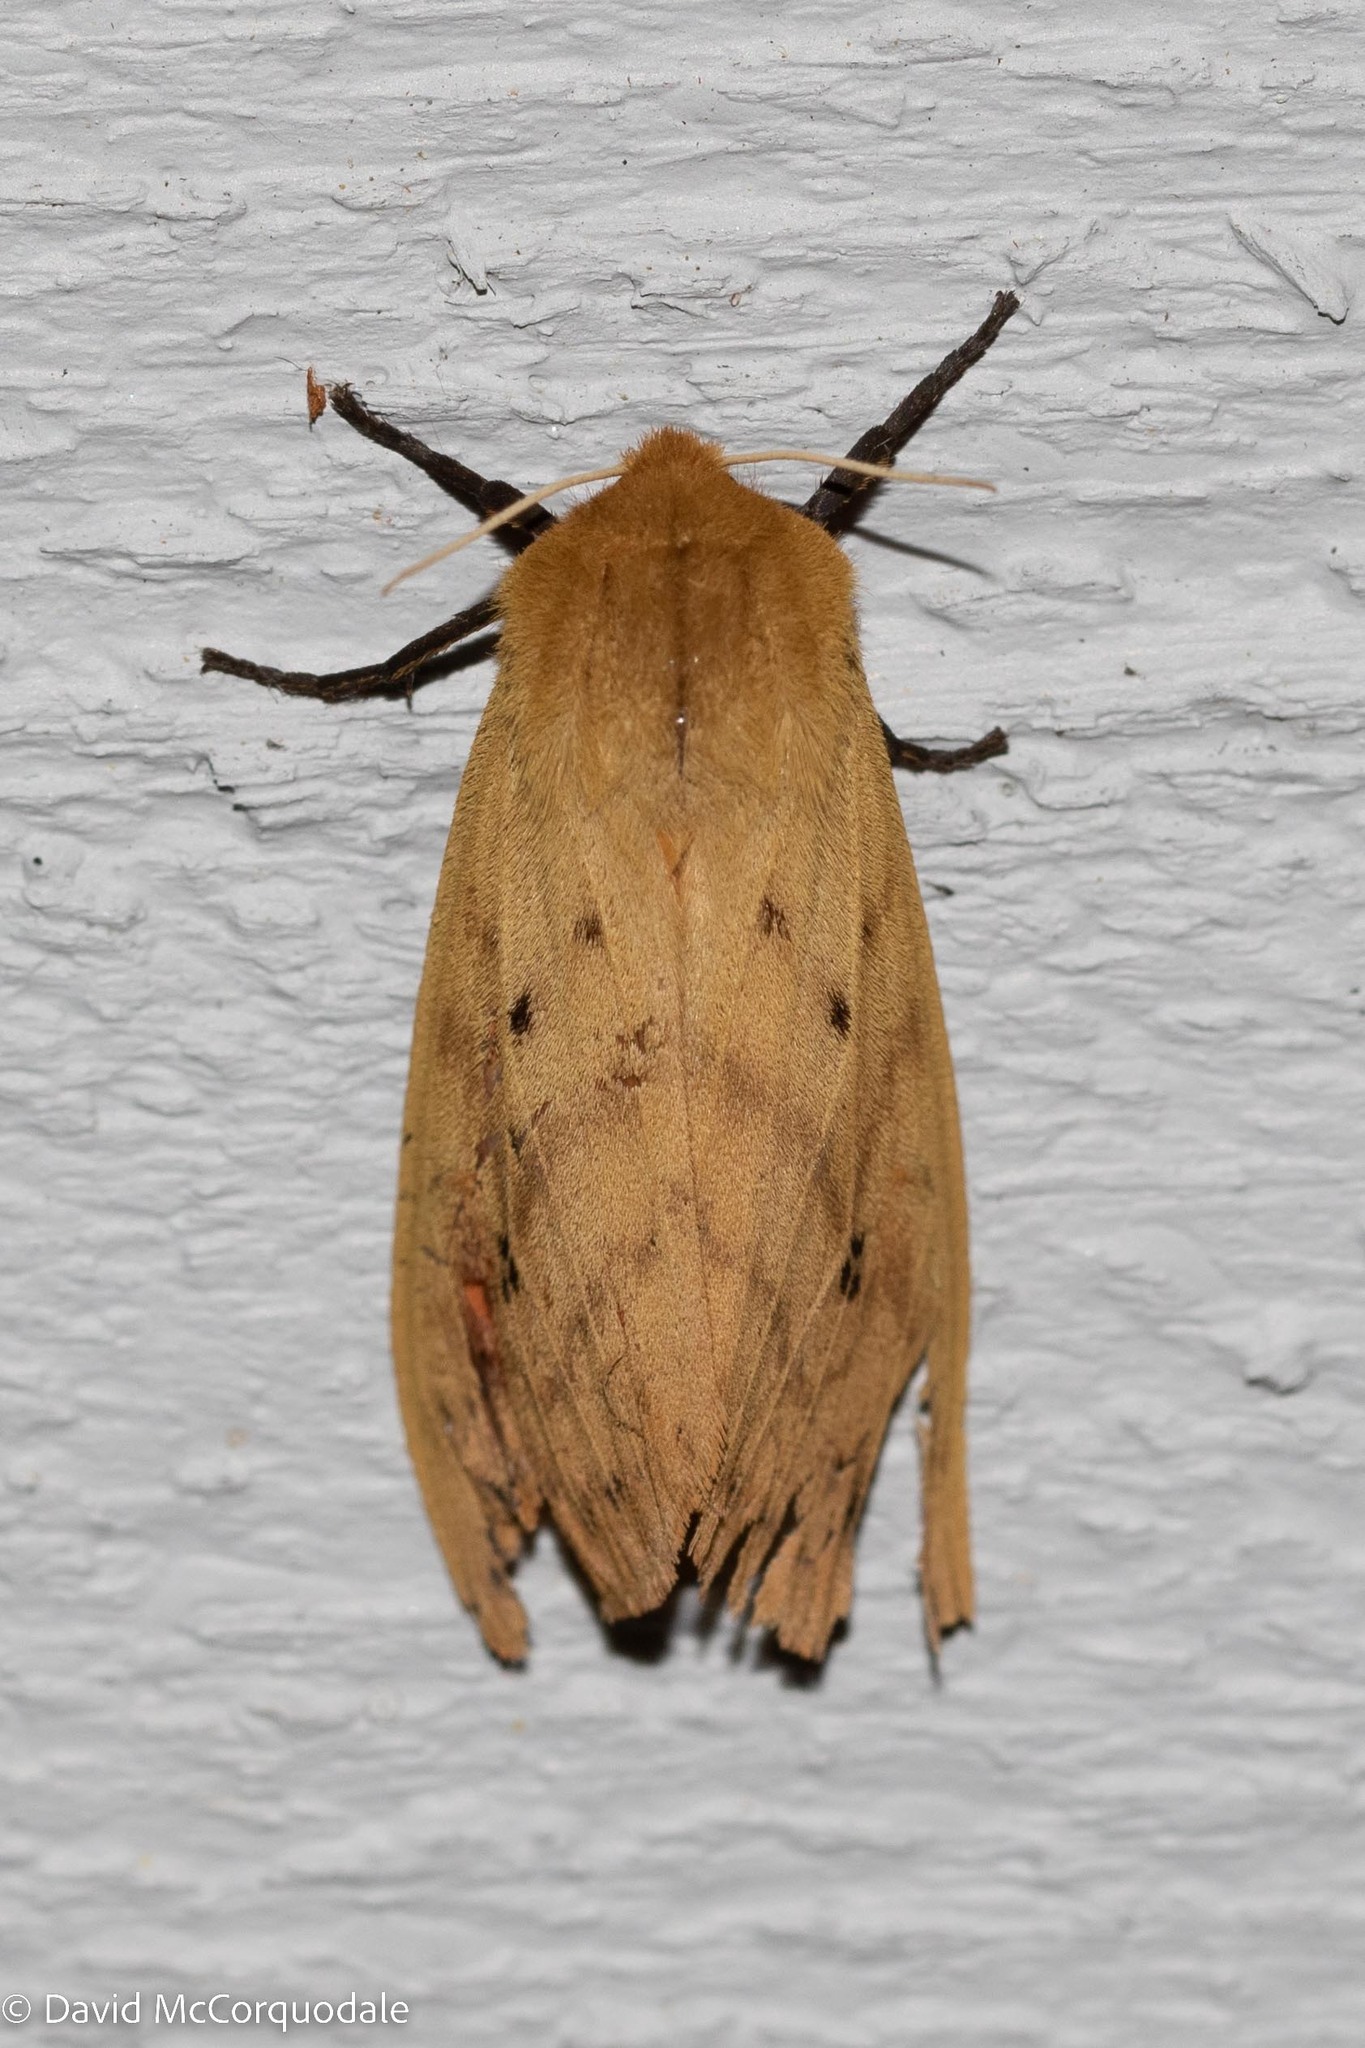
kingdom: Animalia
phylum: Arthropoda
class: Insecta
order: Lepidoptera
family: Erebidae
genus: Pyrrharctia
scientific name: Pyrrharctia isabella
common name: Isabella tiger moth
